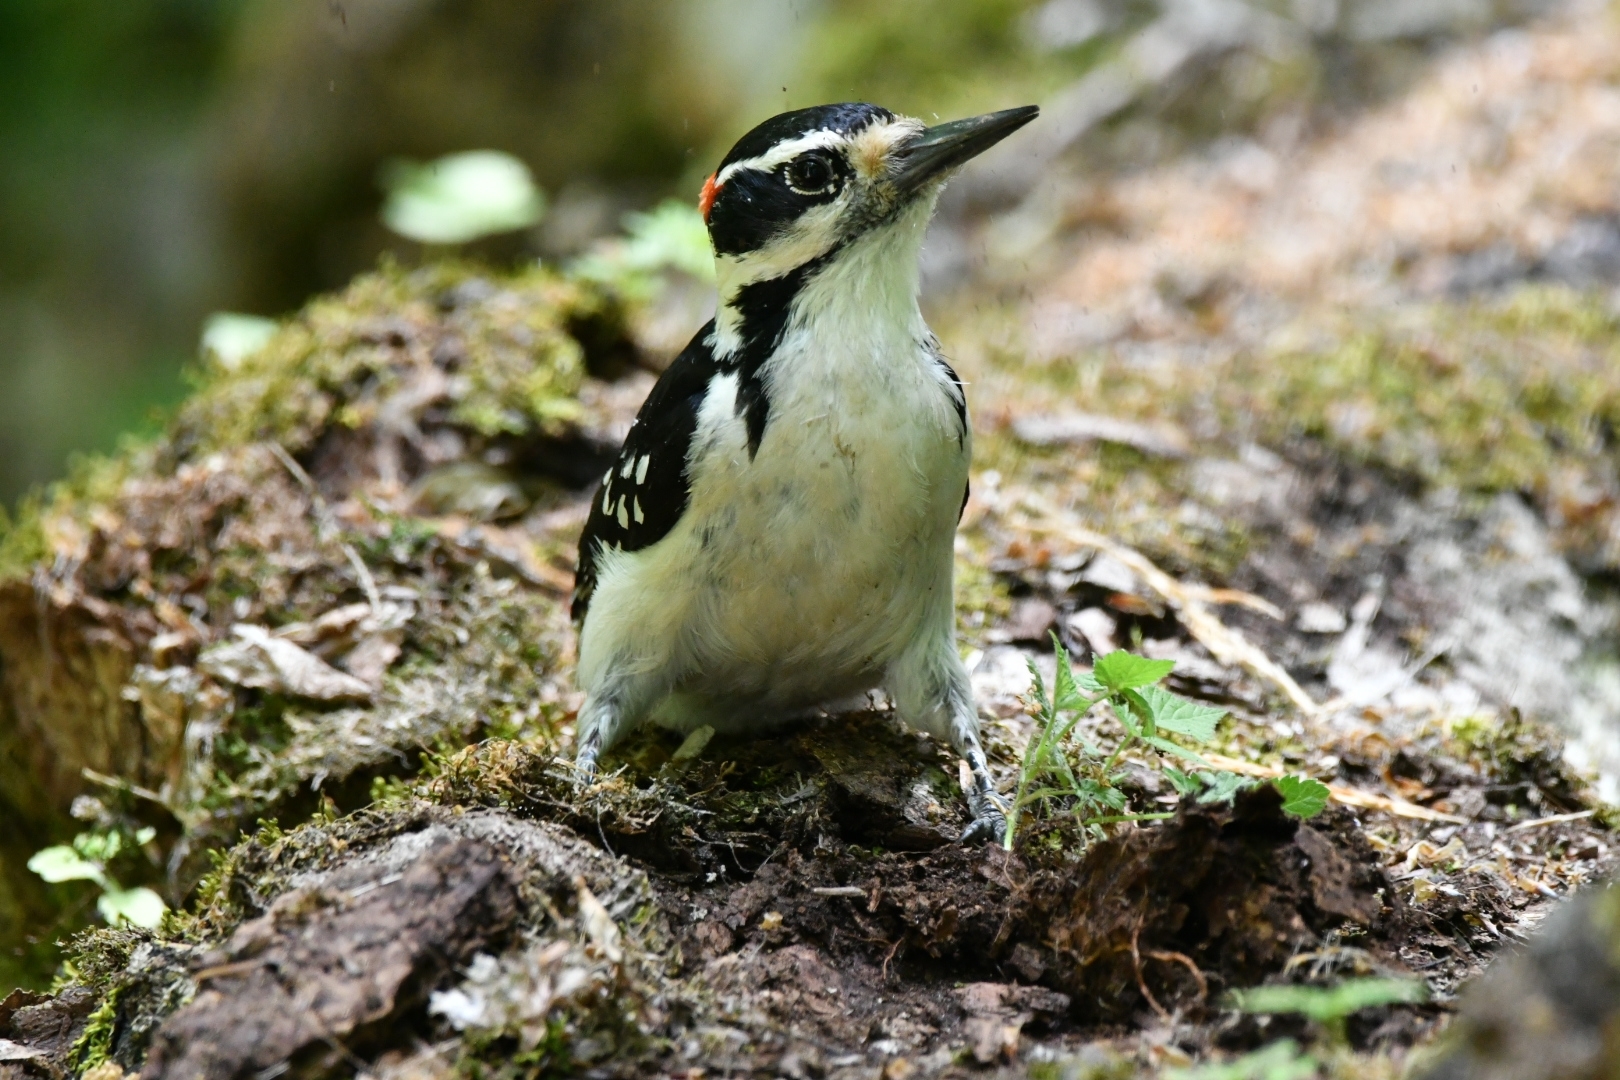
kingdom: Animalia
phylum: Chordata
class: Aves
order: Piciformes
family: Picidae
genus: Leuconotopicus
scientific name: Leuconotopicus villosus
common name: Hairy woodpecker
